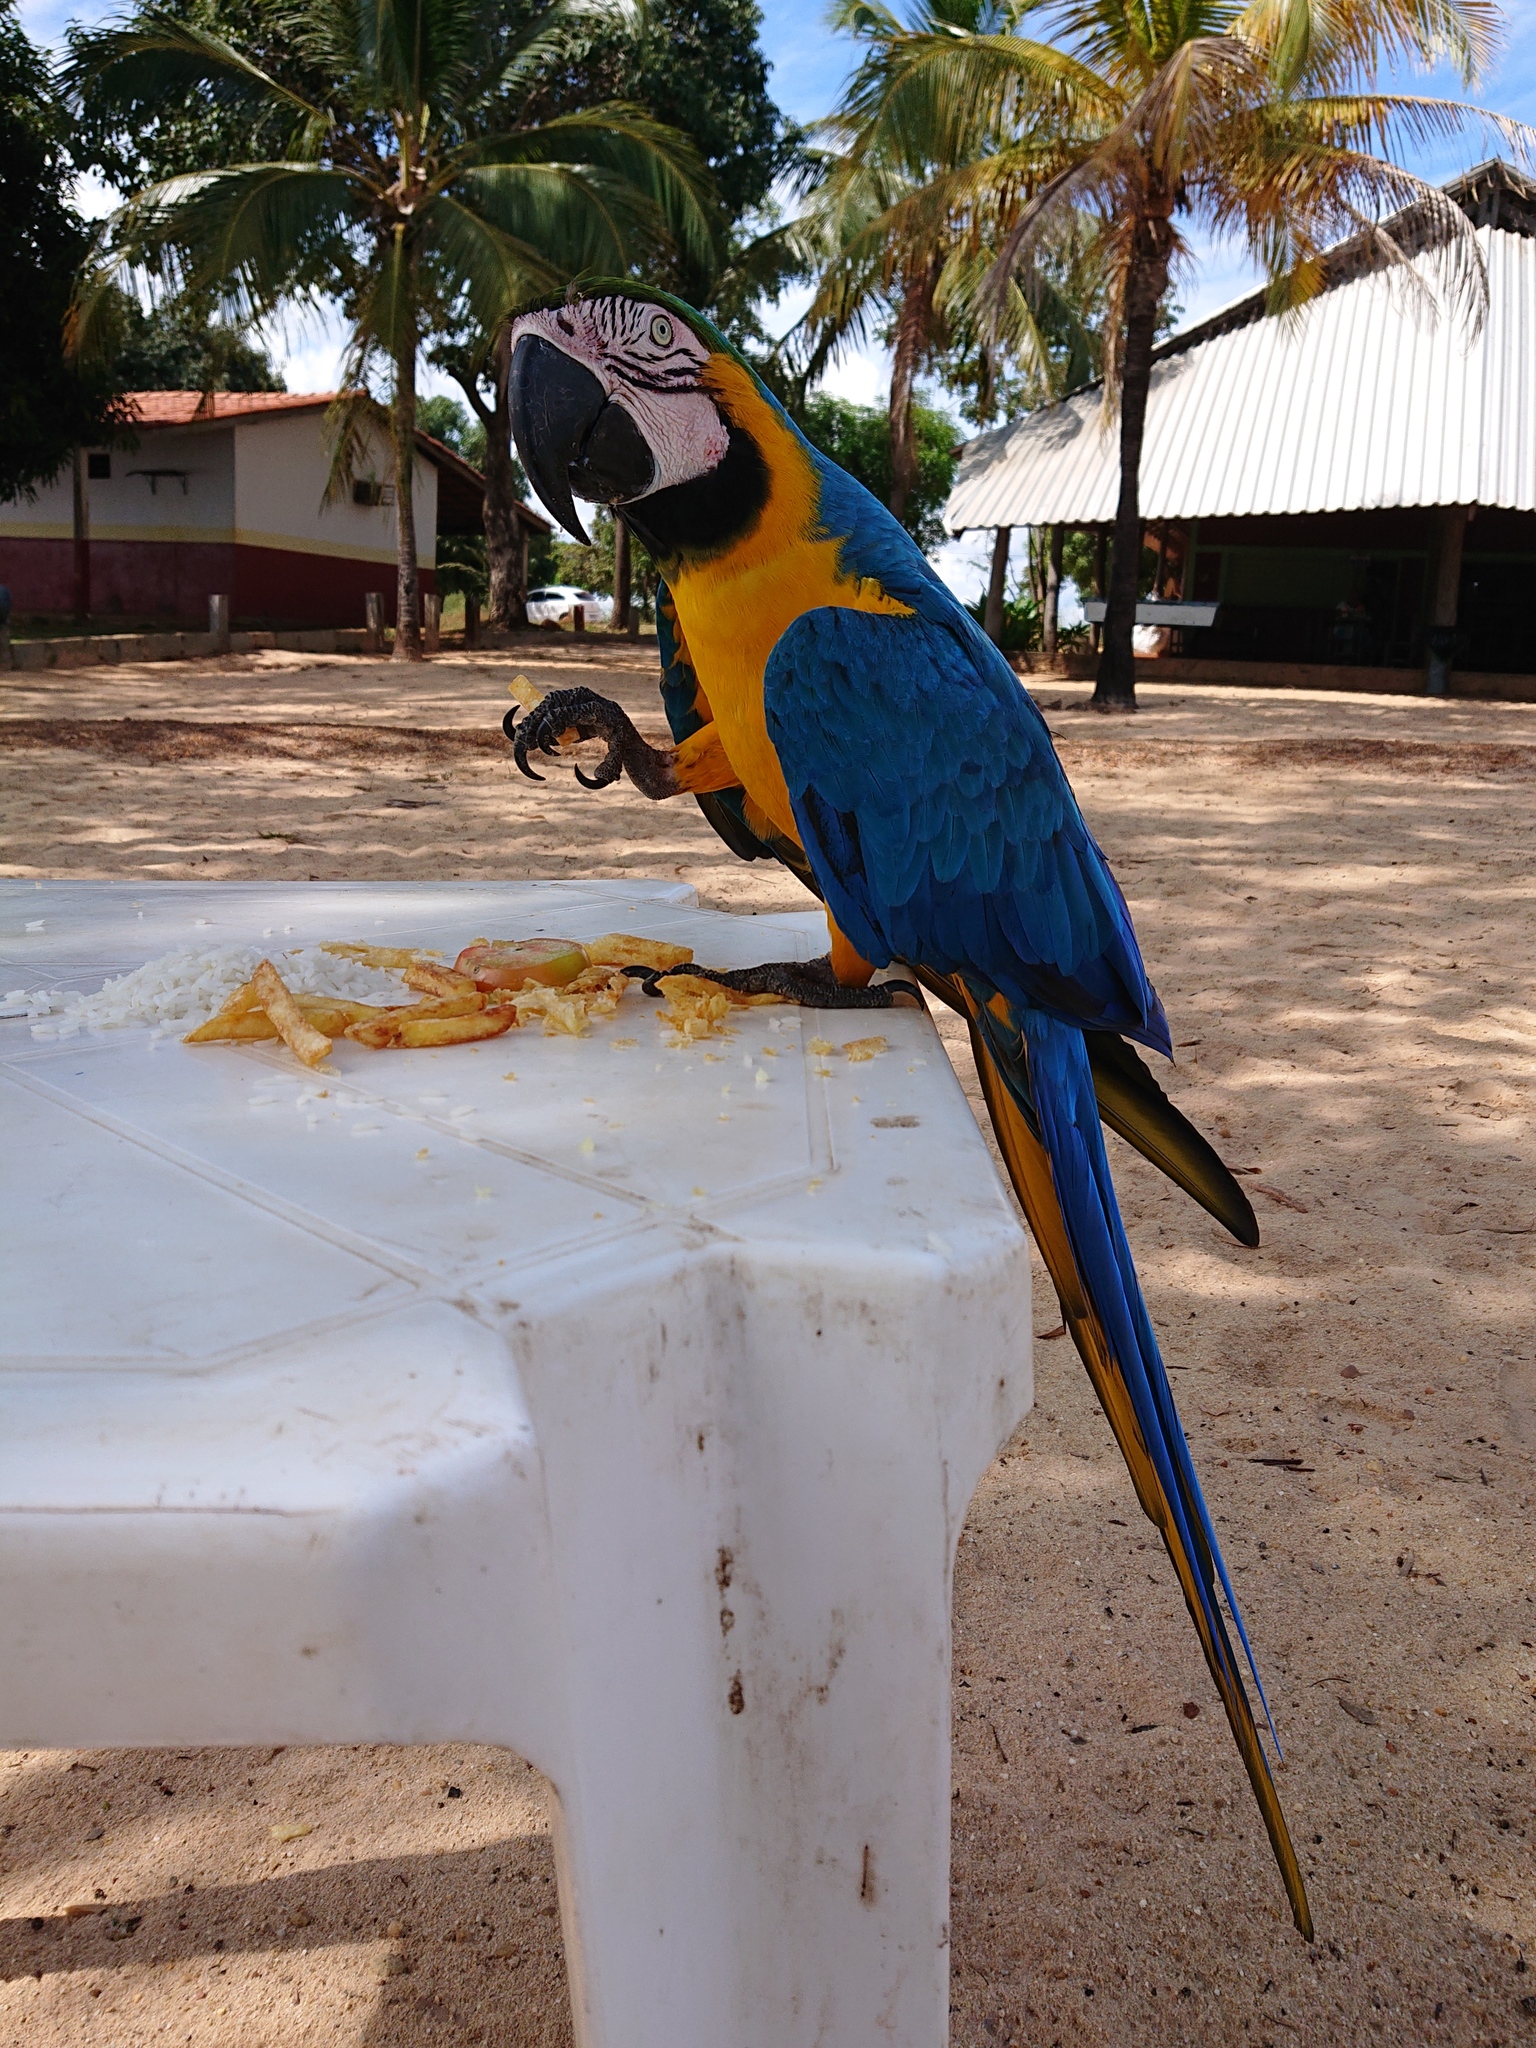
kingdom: Animalia
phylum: Chordata
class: Aves
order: Psittaciformes
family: Psittacidae
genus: Ara
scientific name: Ara ararauna
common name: Blue-and-yellow macaw
